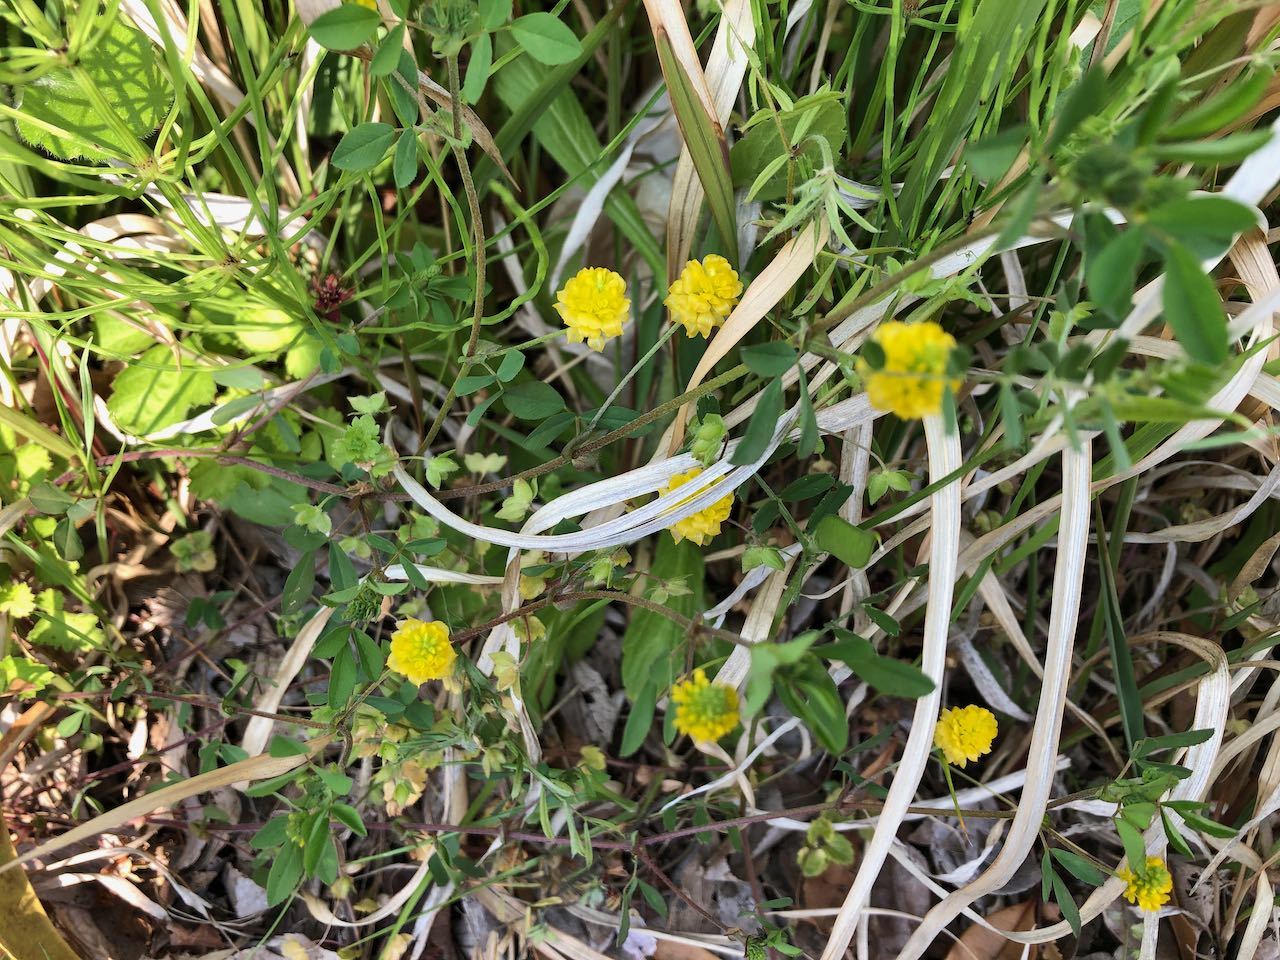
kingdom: Plantae
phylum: Tracheophyta
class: Magnoliopsida
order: Fabales
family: Fabaceae
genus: Trifolium
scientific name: Trifolium campestre
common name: Field clover
